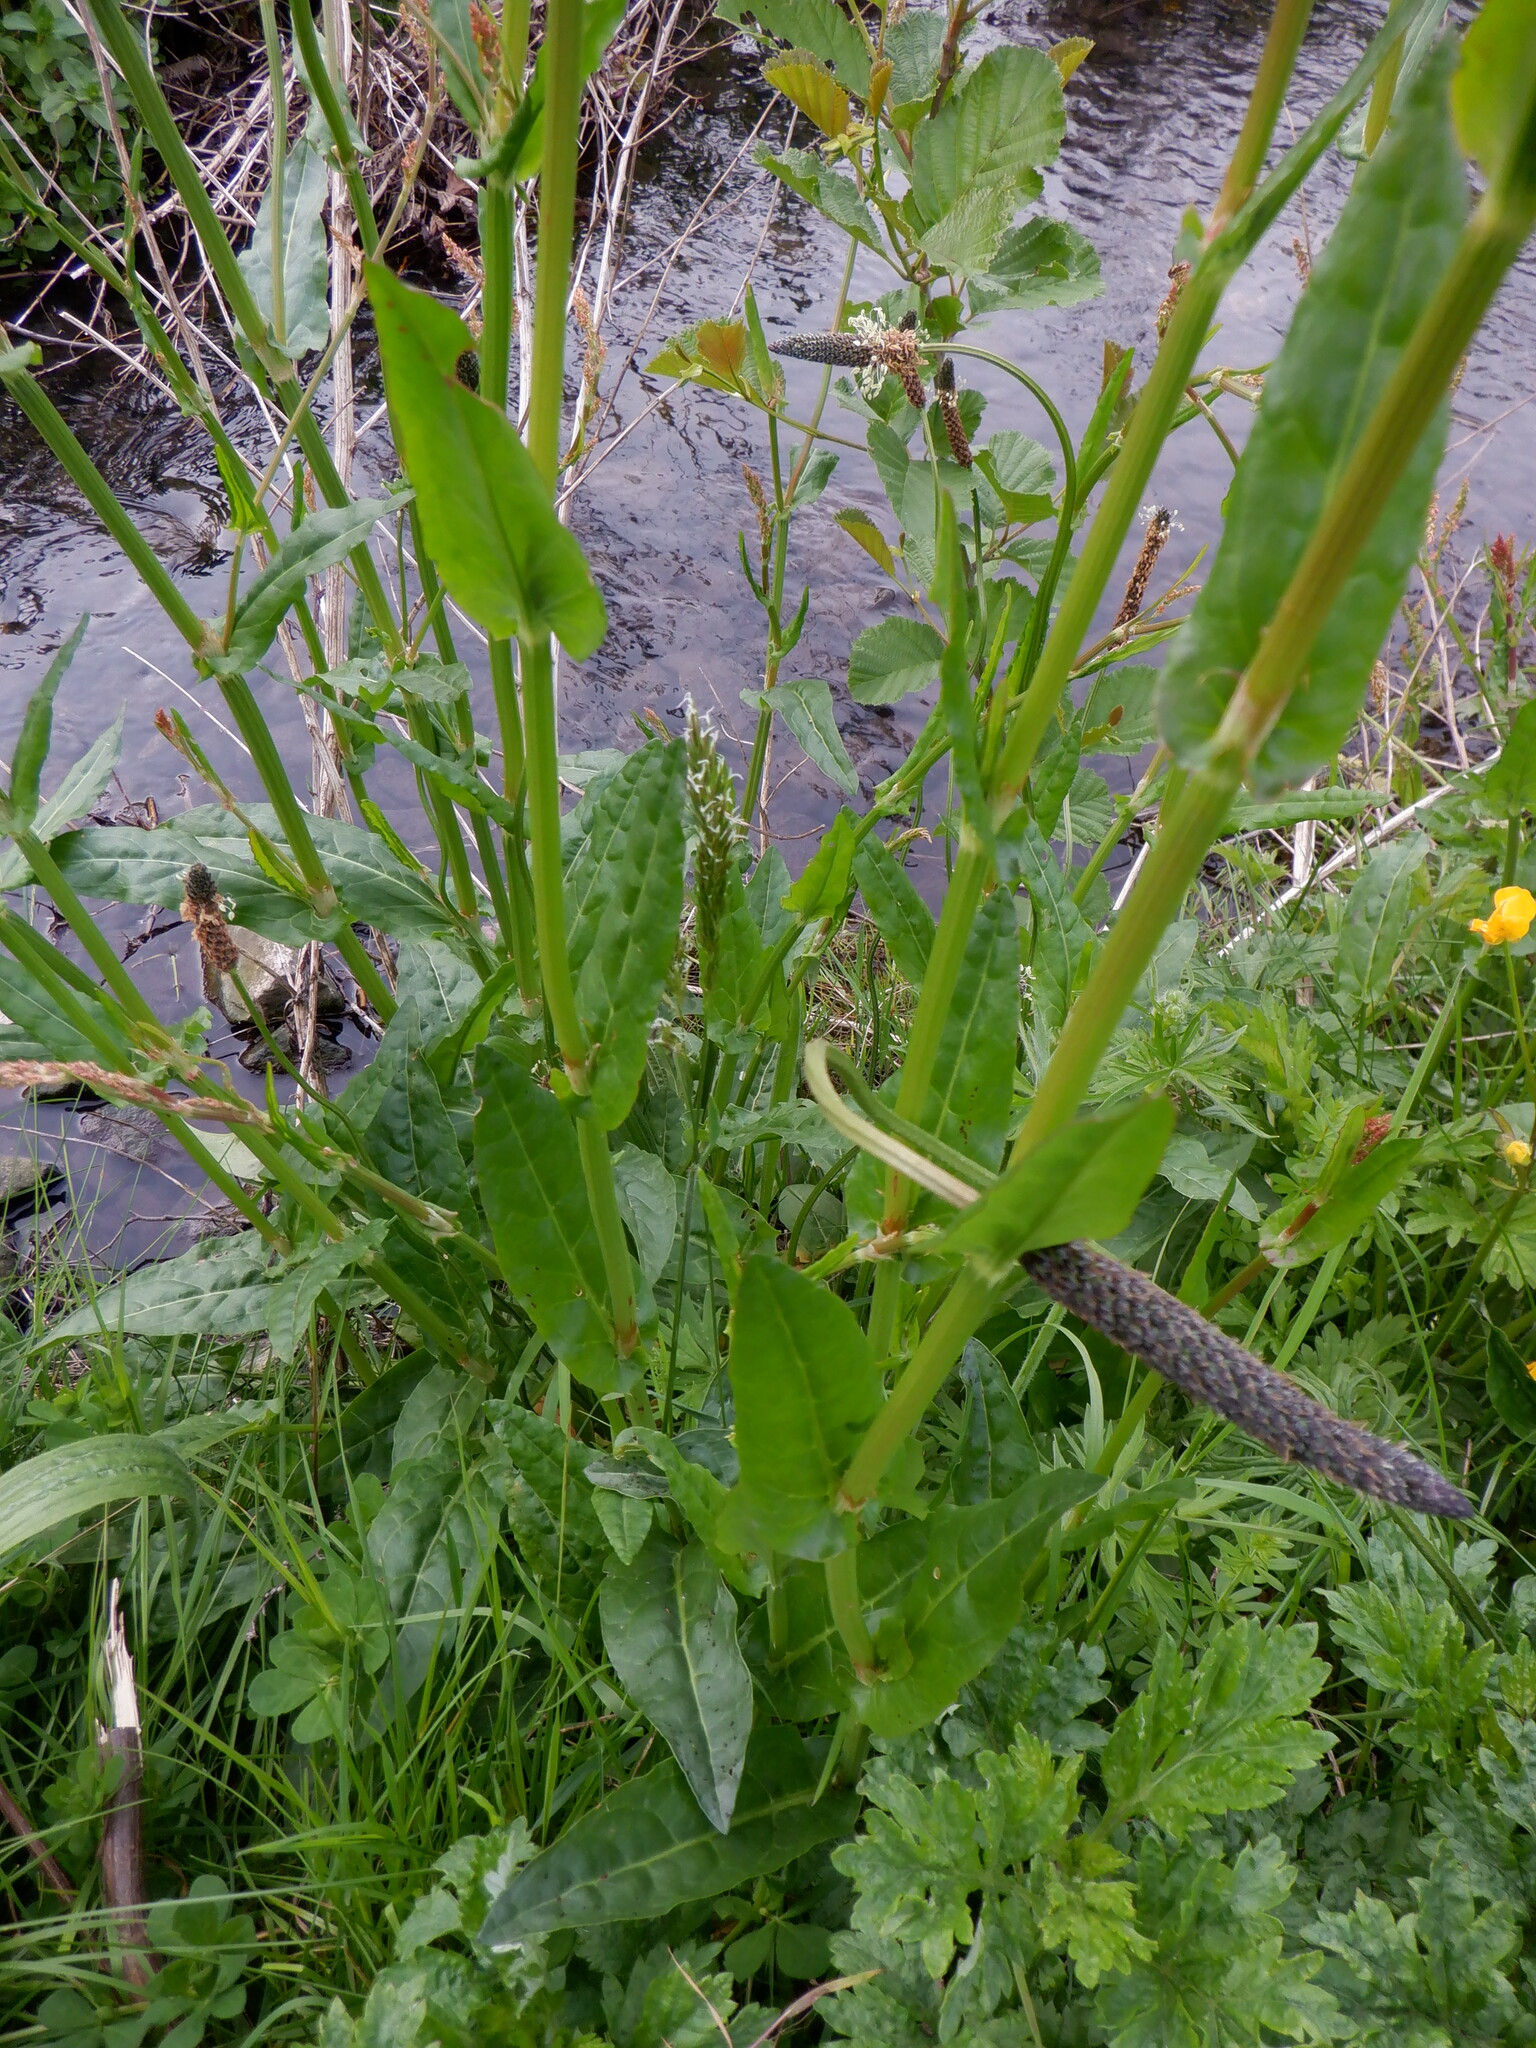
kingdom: Plantae
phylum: Tracheophyta
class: Magnoliopsida
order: Caryophyllales
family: Polygonaceae
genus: Rumex
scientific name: Rumex acetosa
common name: Garden sorrel
